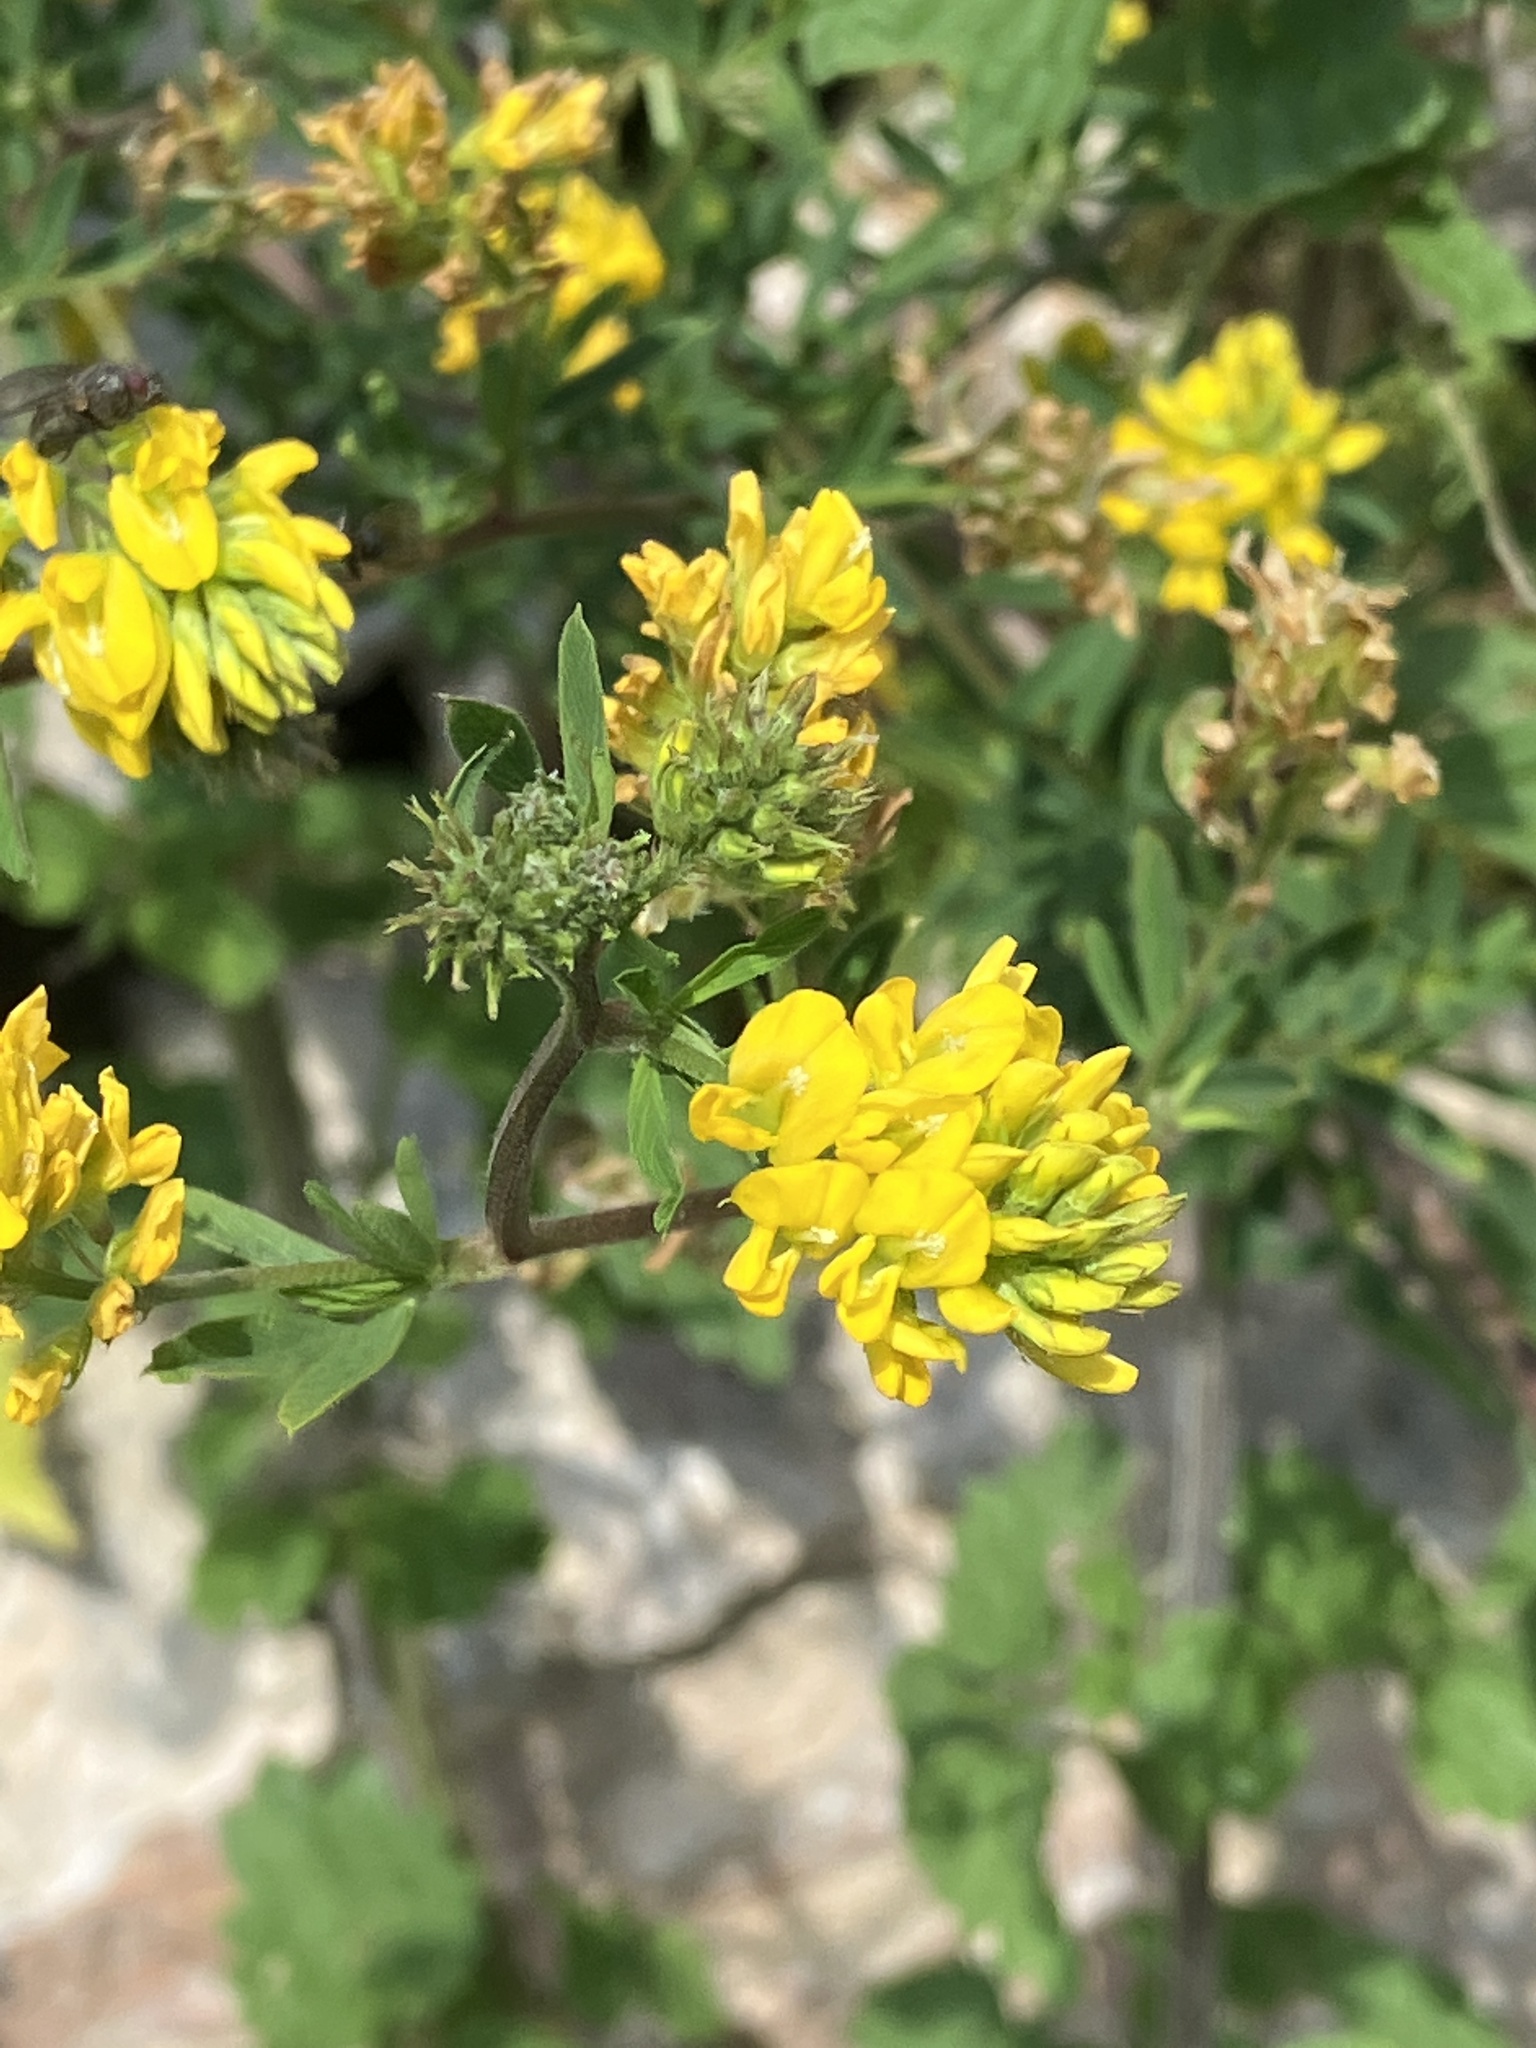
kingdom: Plantae
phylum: Tracheophyta
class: Magnoliopsida
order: Fabales
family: Fabaceae
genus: Medicago
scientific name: Medicago falcata
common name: Sickle medick
